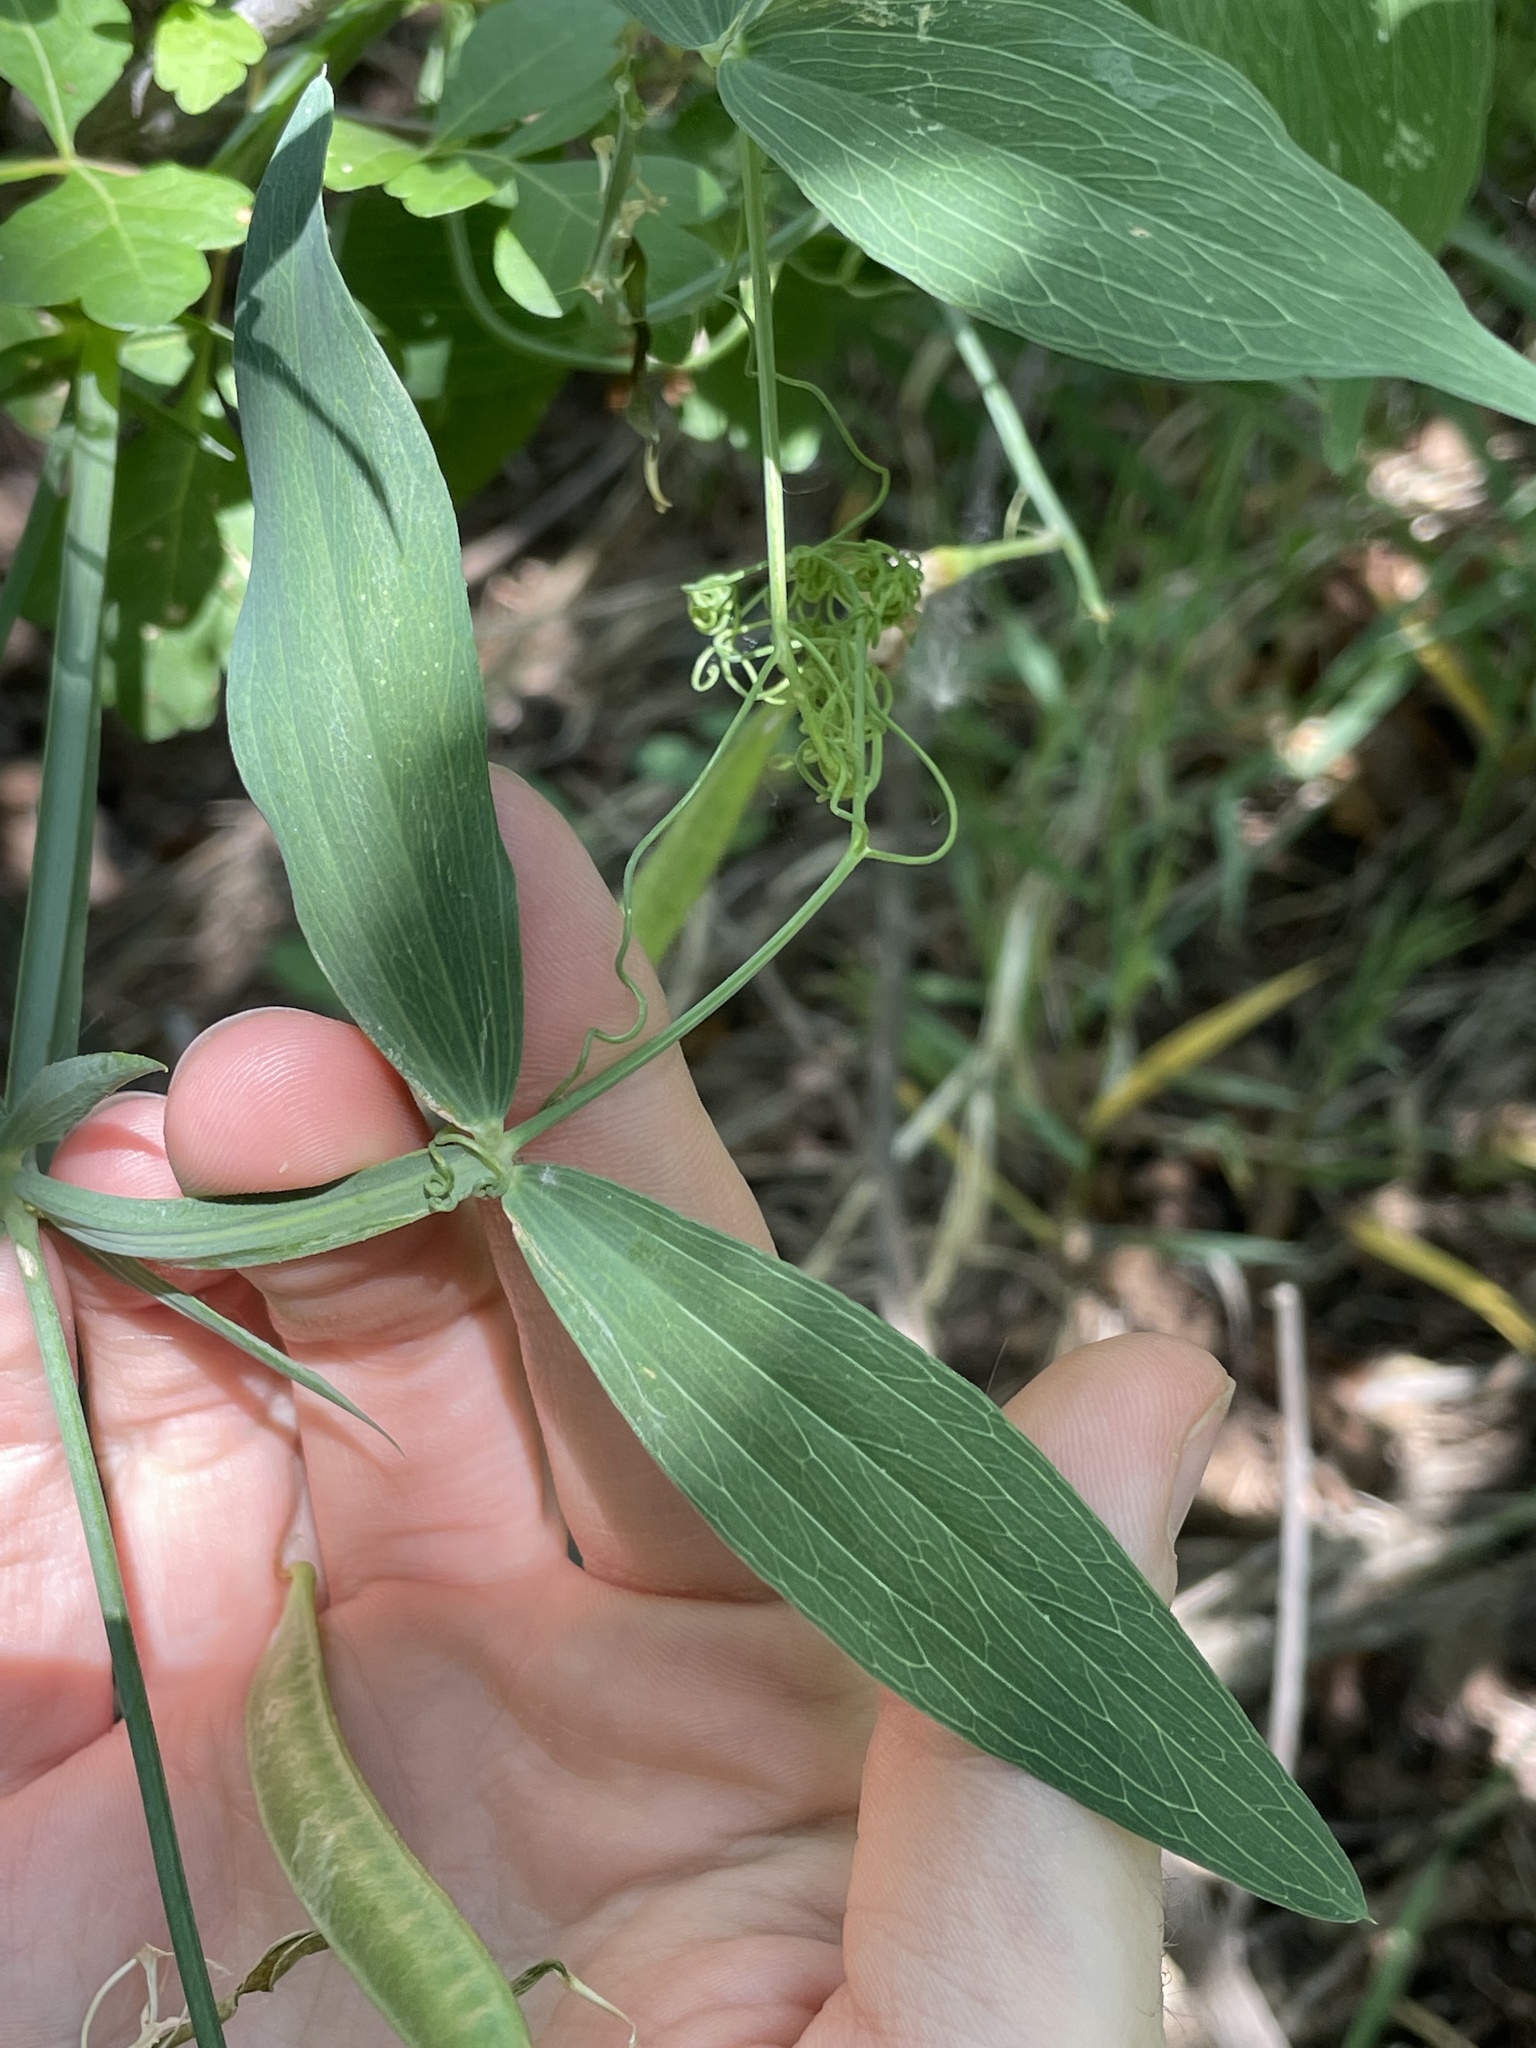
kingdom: Plantae
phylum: Tracheophyta
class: Magnoliopsida
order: Fabales
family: Fabaceae
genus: Lathyrus
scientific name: Lathyrus latifolius
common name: Perennial pea
